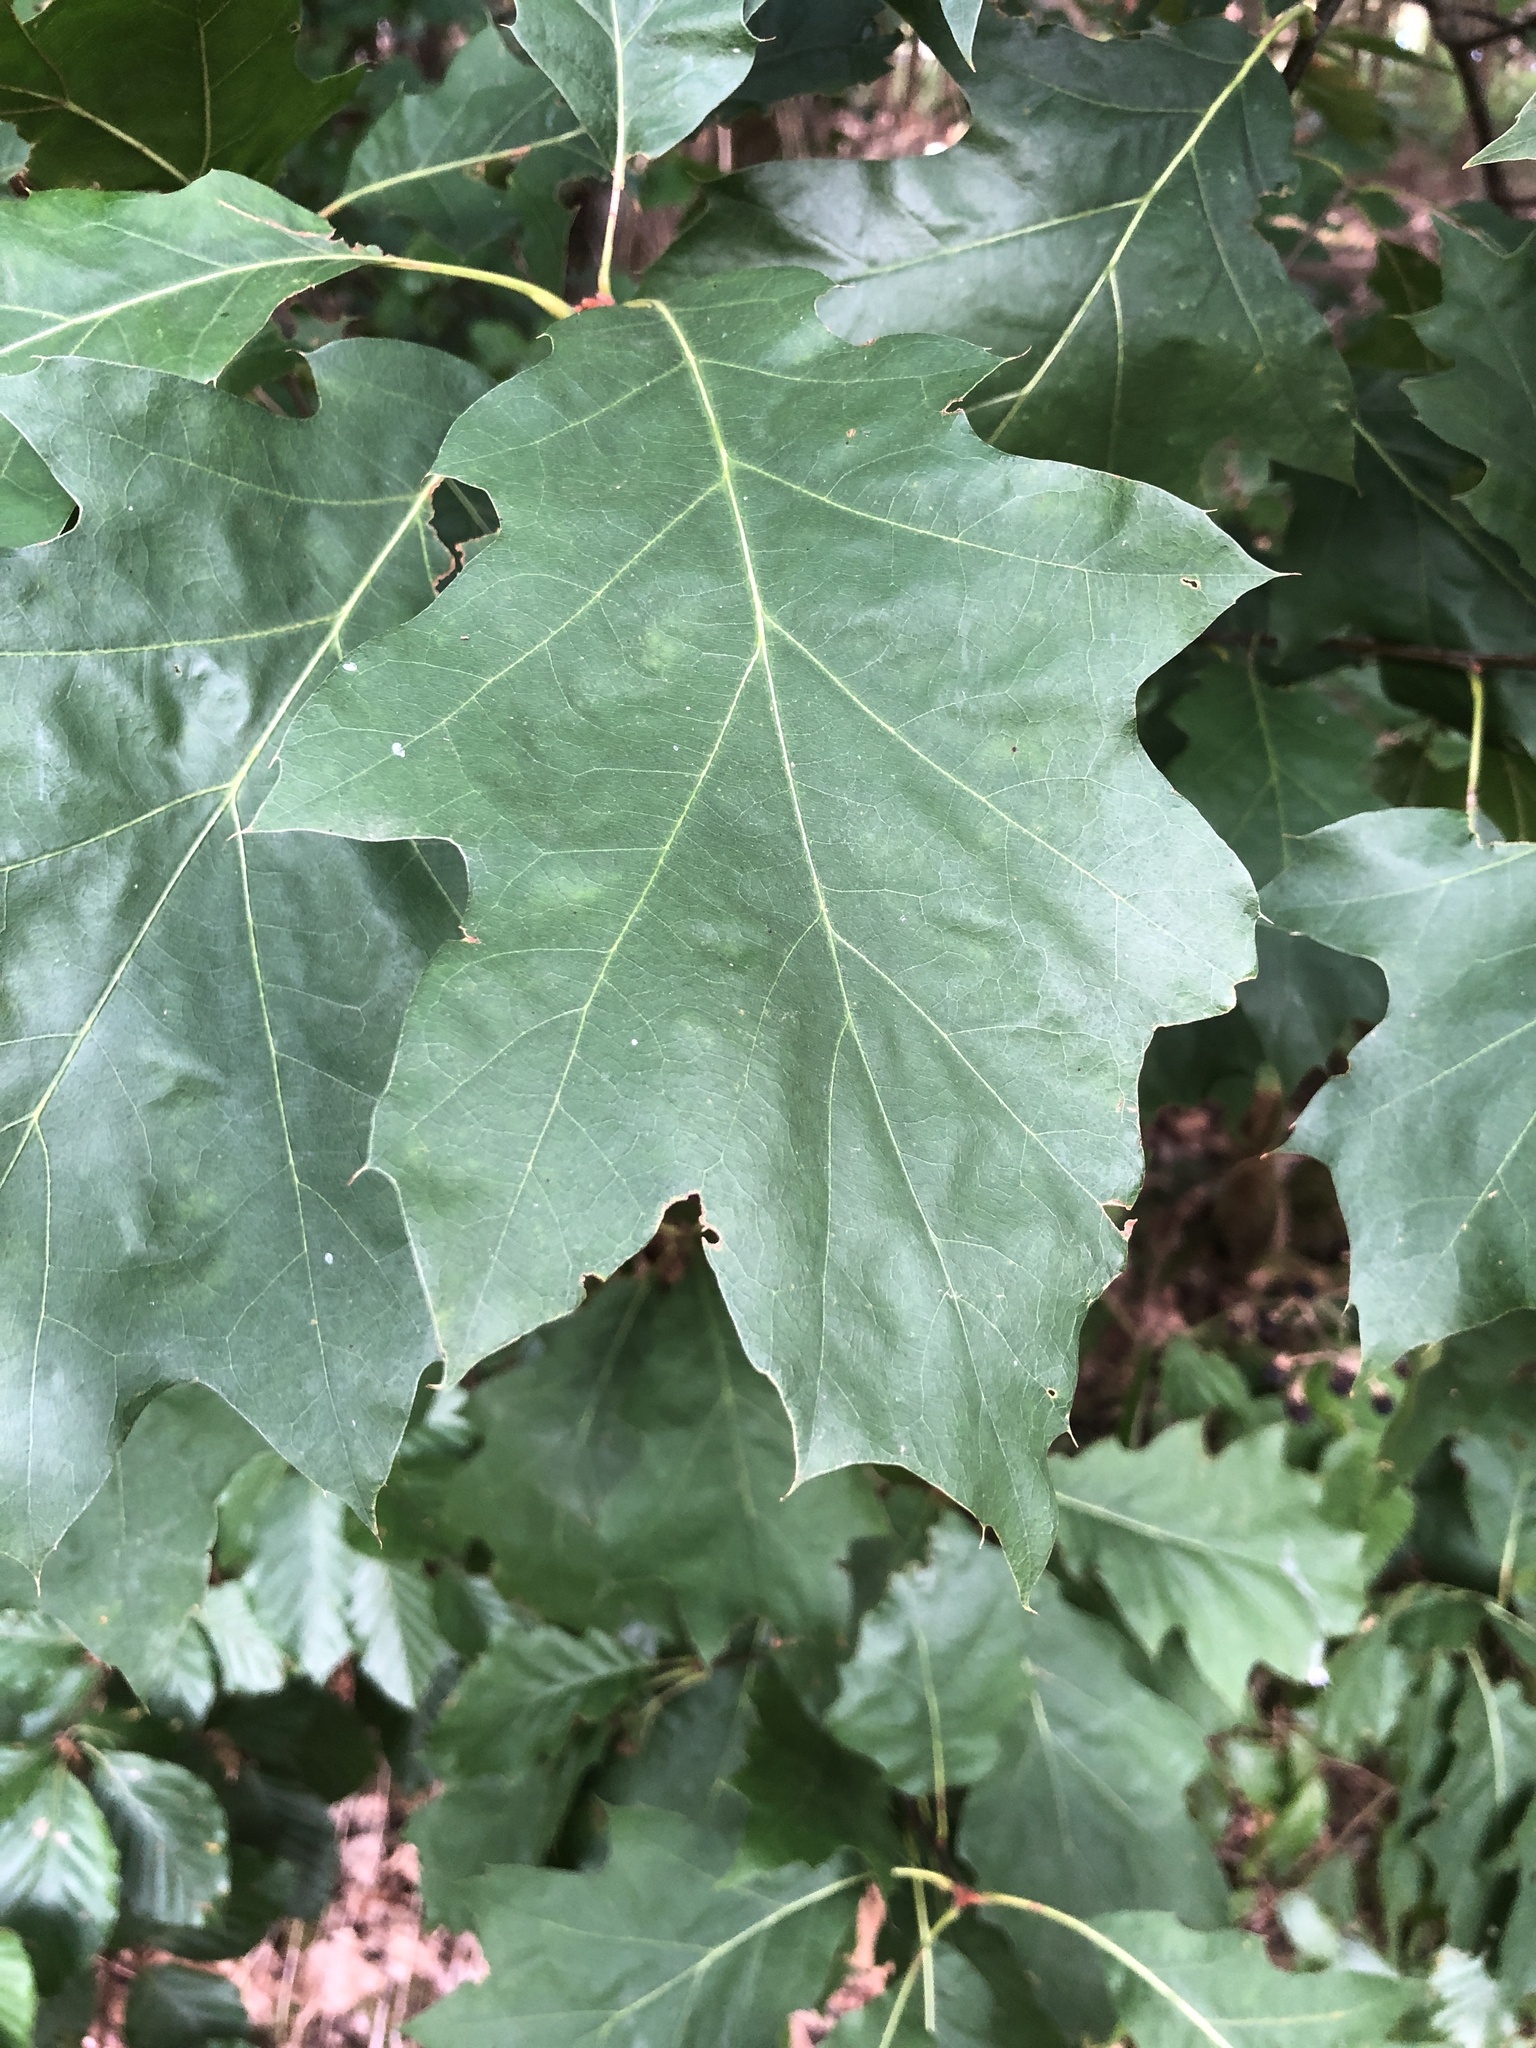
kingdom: Plantae
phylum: Tracheophyta
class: Magnoliopsida
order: Fagales
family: Fagaceae
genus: Quercus
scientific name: Quercus rubra
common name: Red oak
